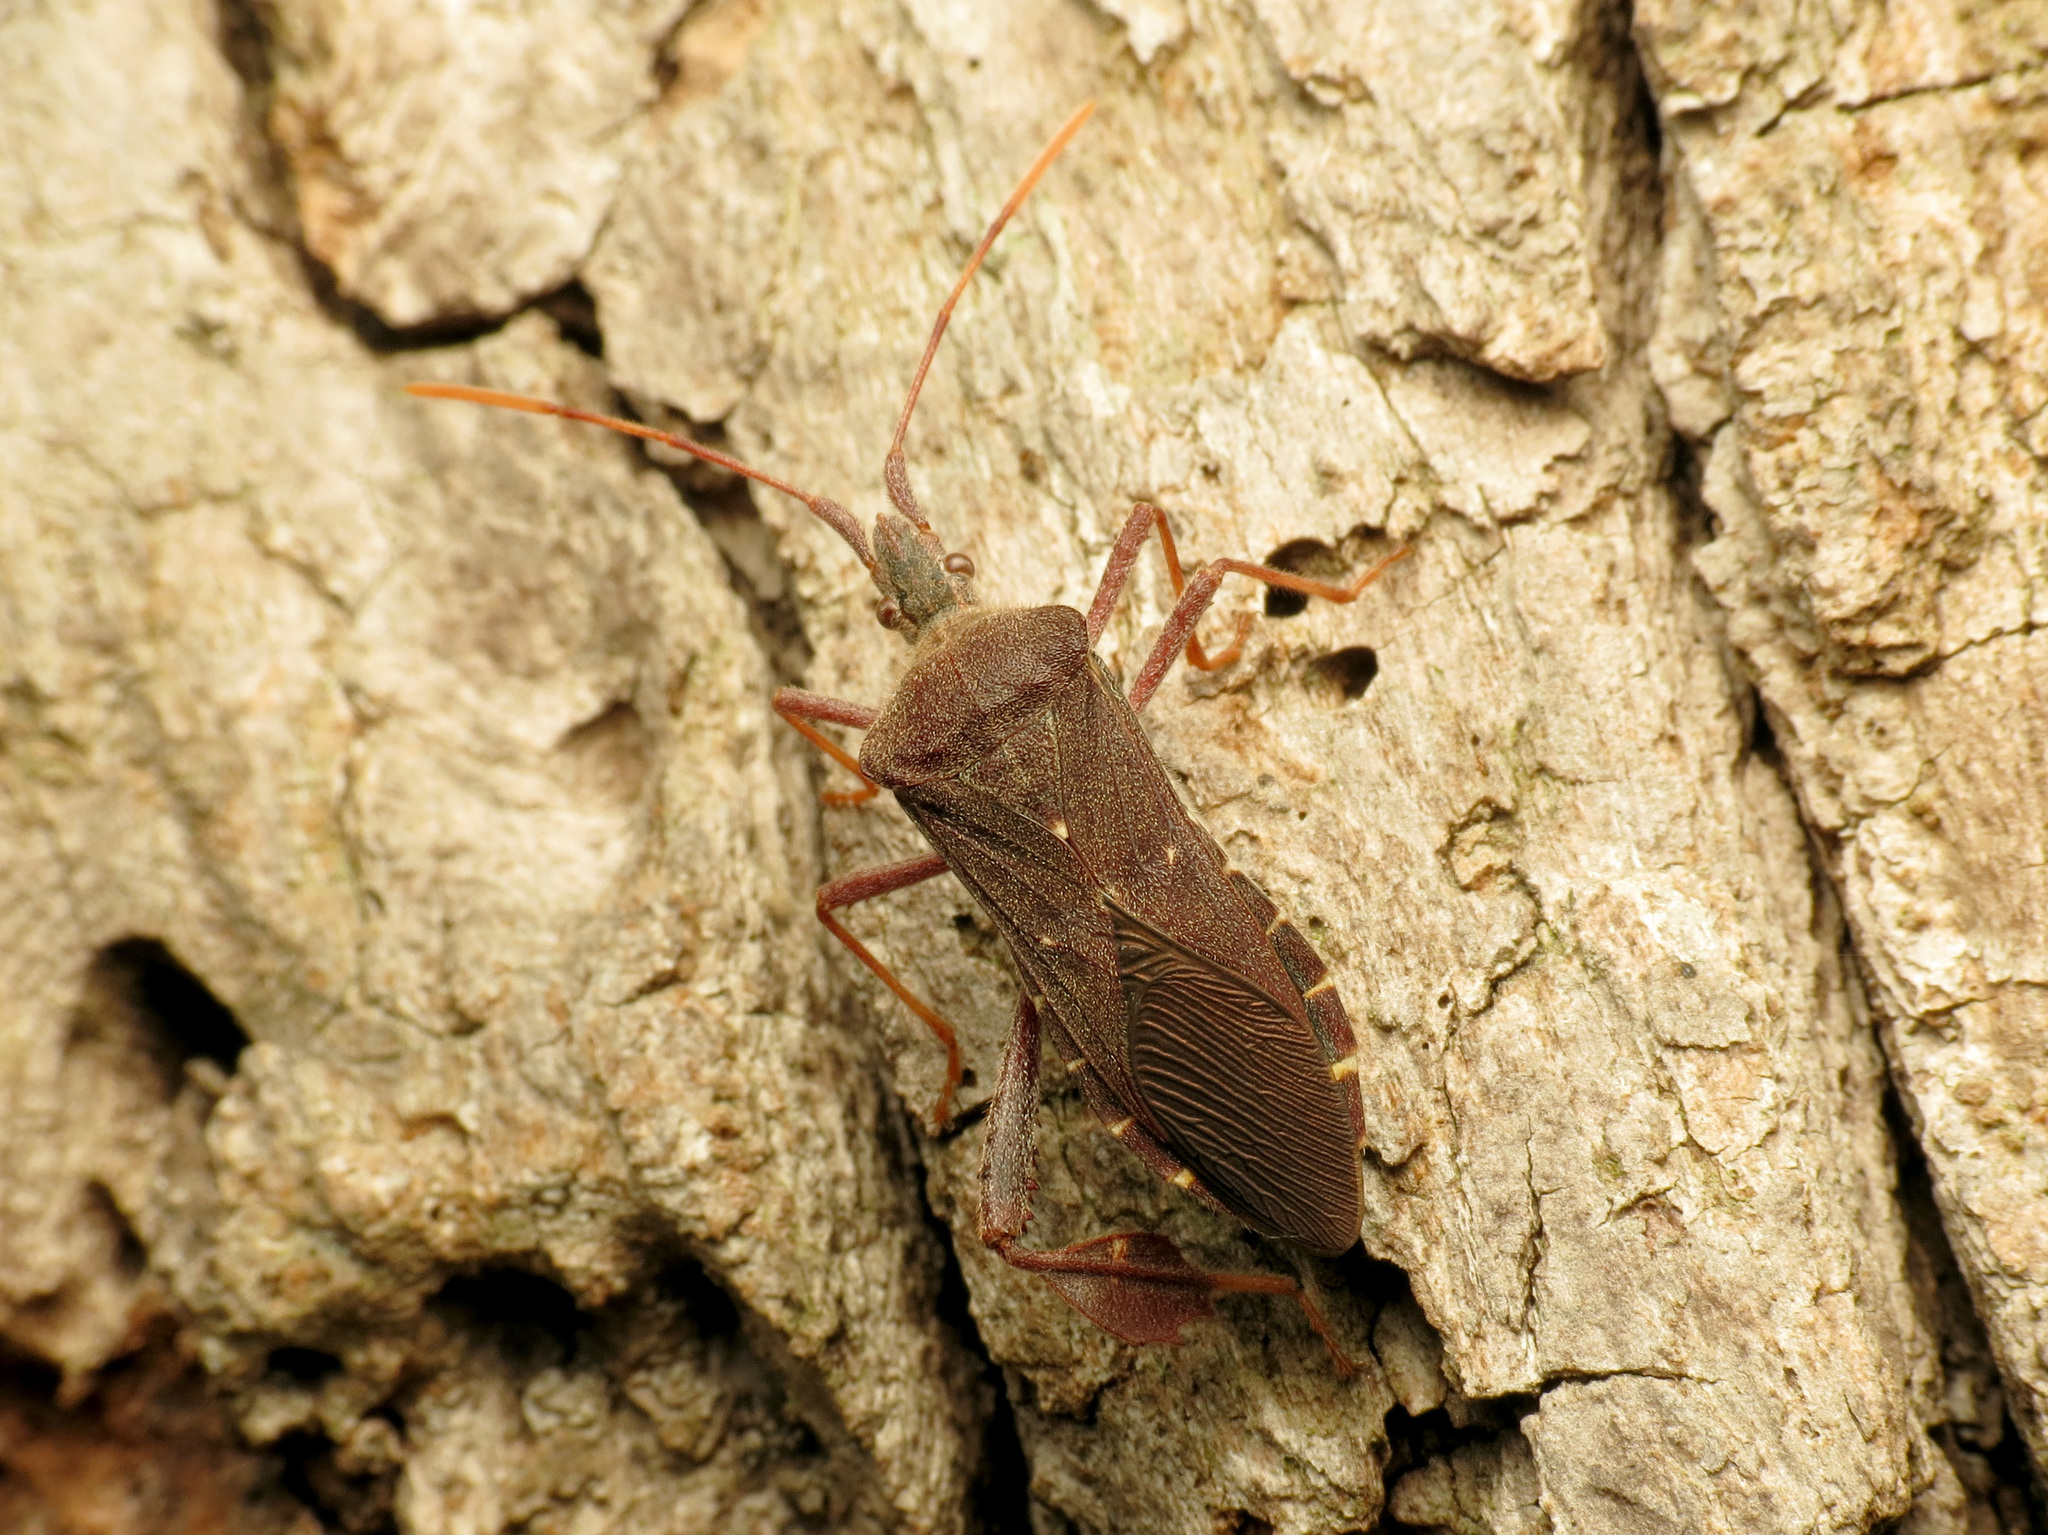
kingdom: Animalia
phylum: Arthropoda
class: Insecta
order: Hemiptera
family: Coreidae
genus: Leptoglossus
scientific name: Leptoglossus oppositus
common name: Northern leaf-footed bug
